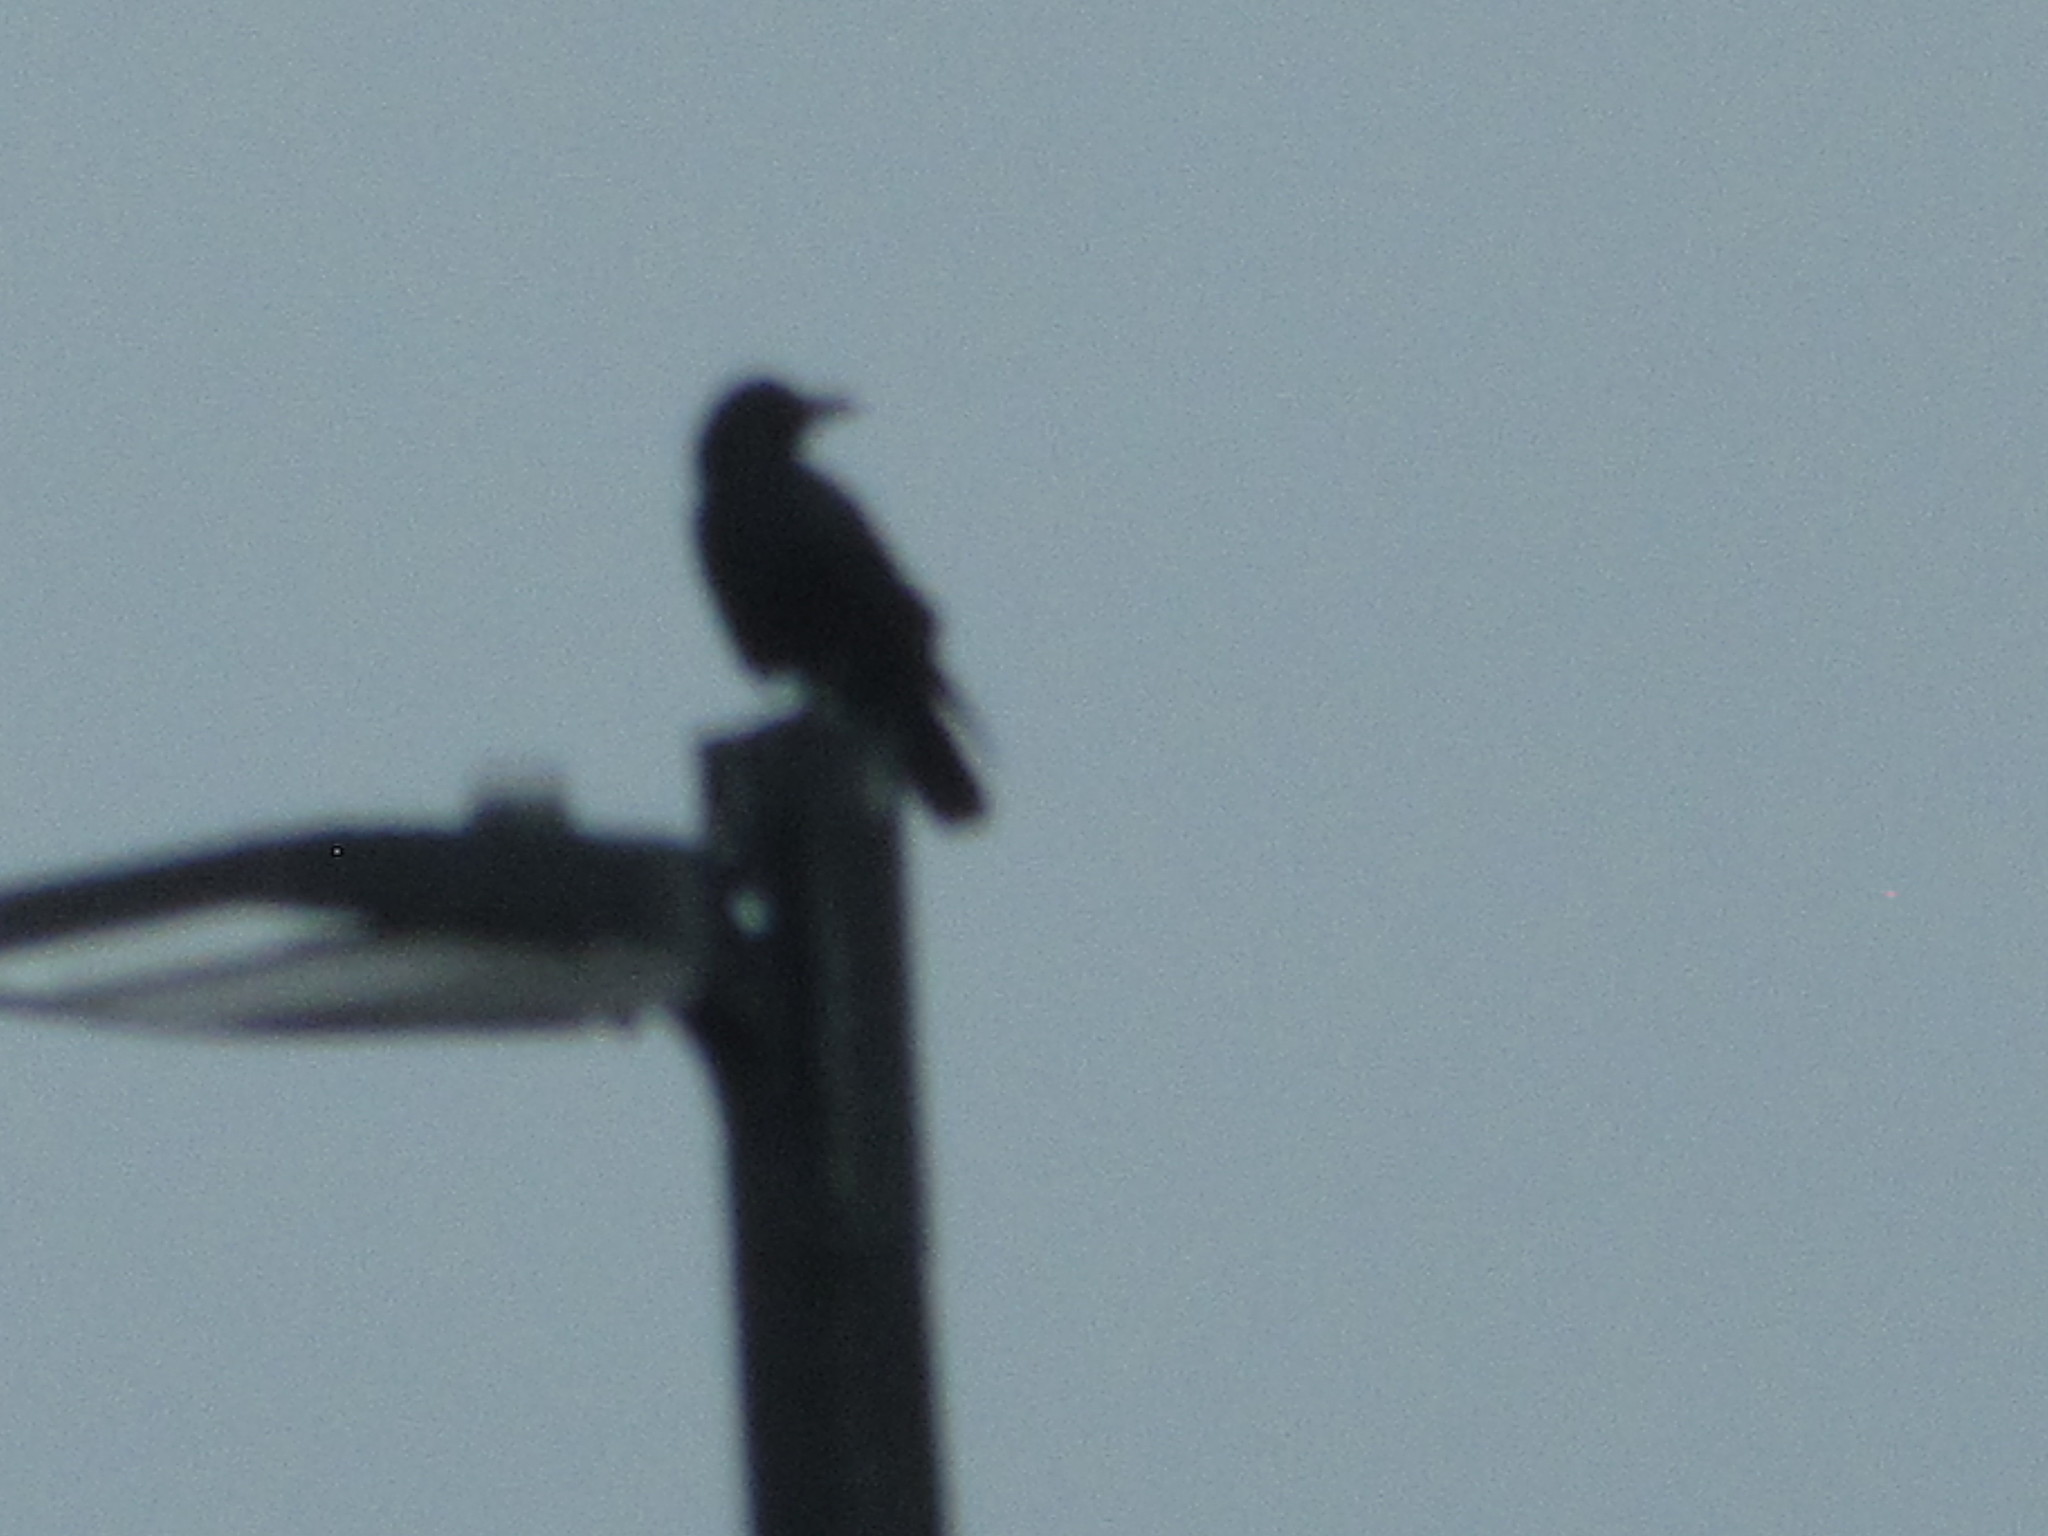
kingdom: Animalia
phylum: Chordata
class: Aves
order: Passeriformes
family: Corvidae
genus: Corvus
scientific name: Corvus brachyrhynchos
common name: American crow
